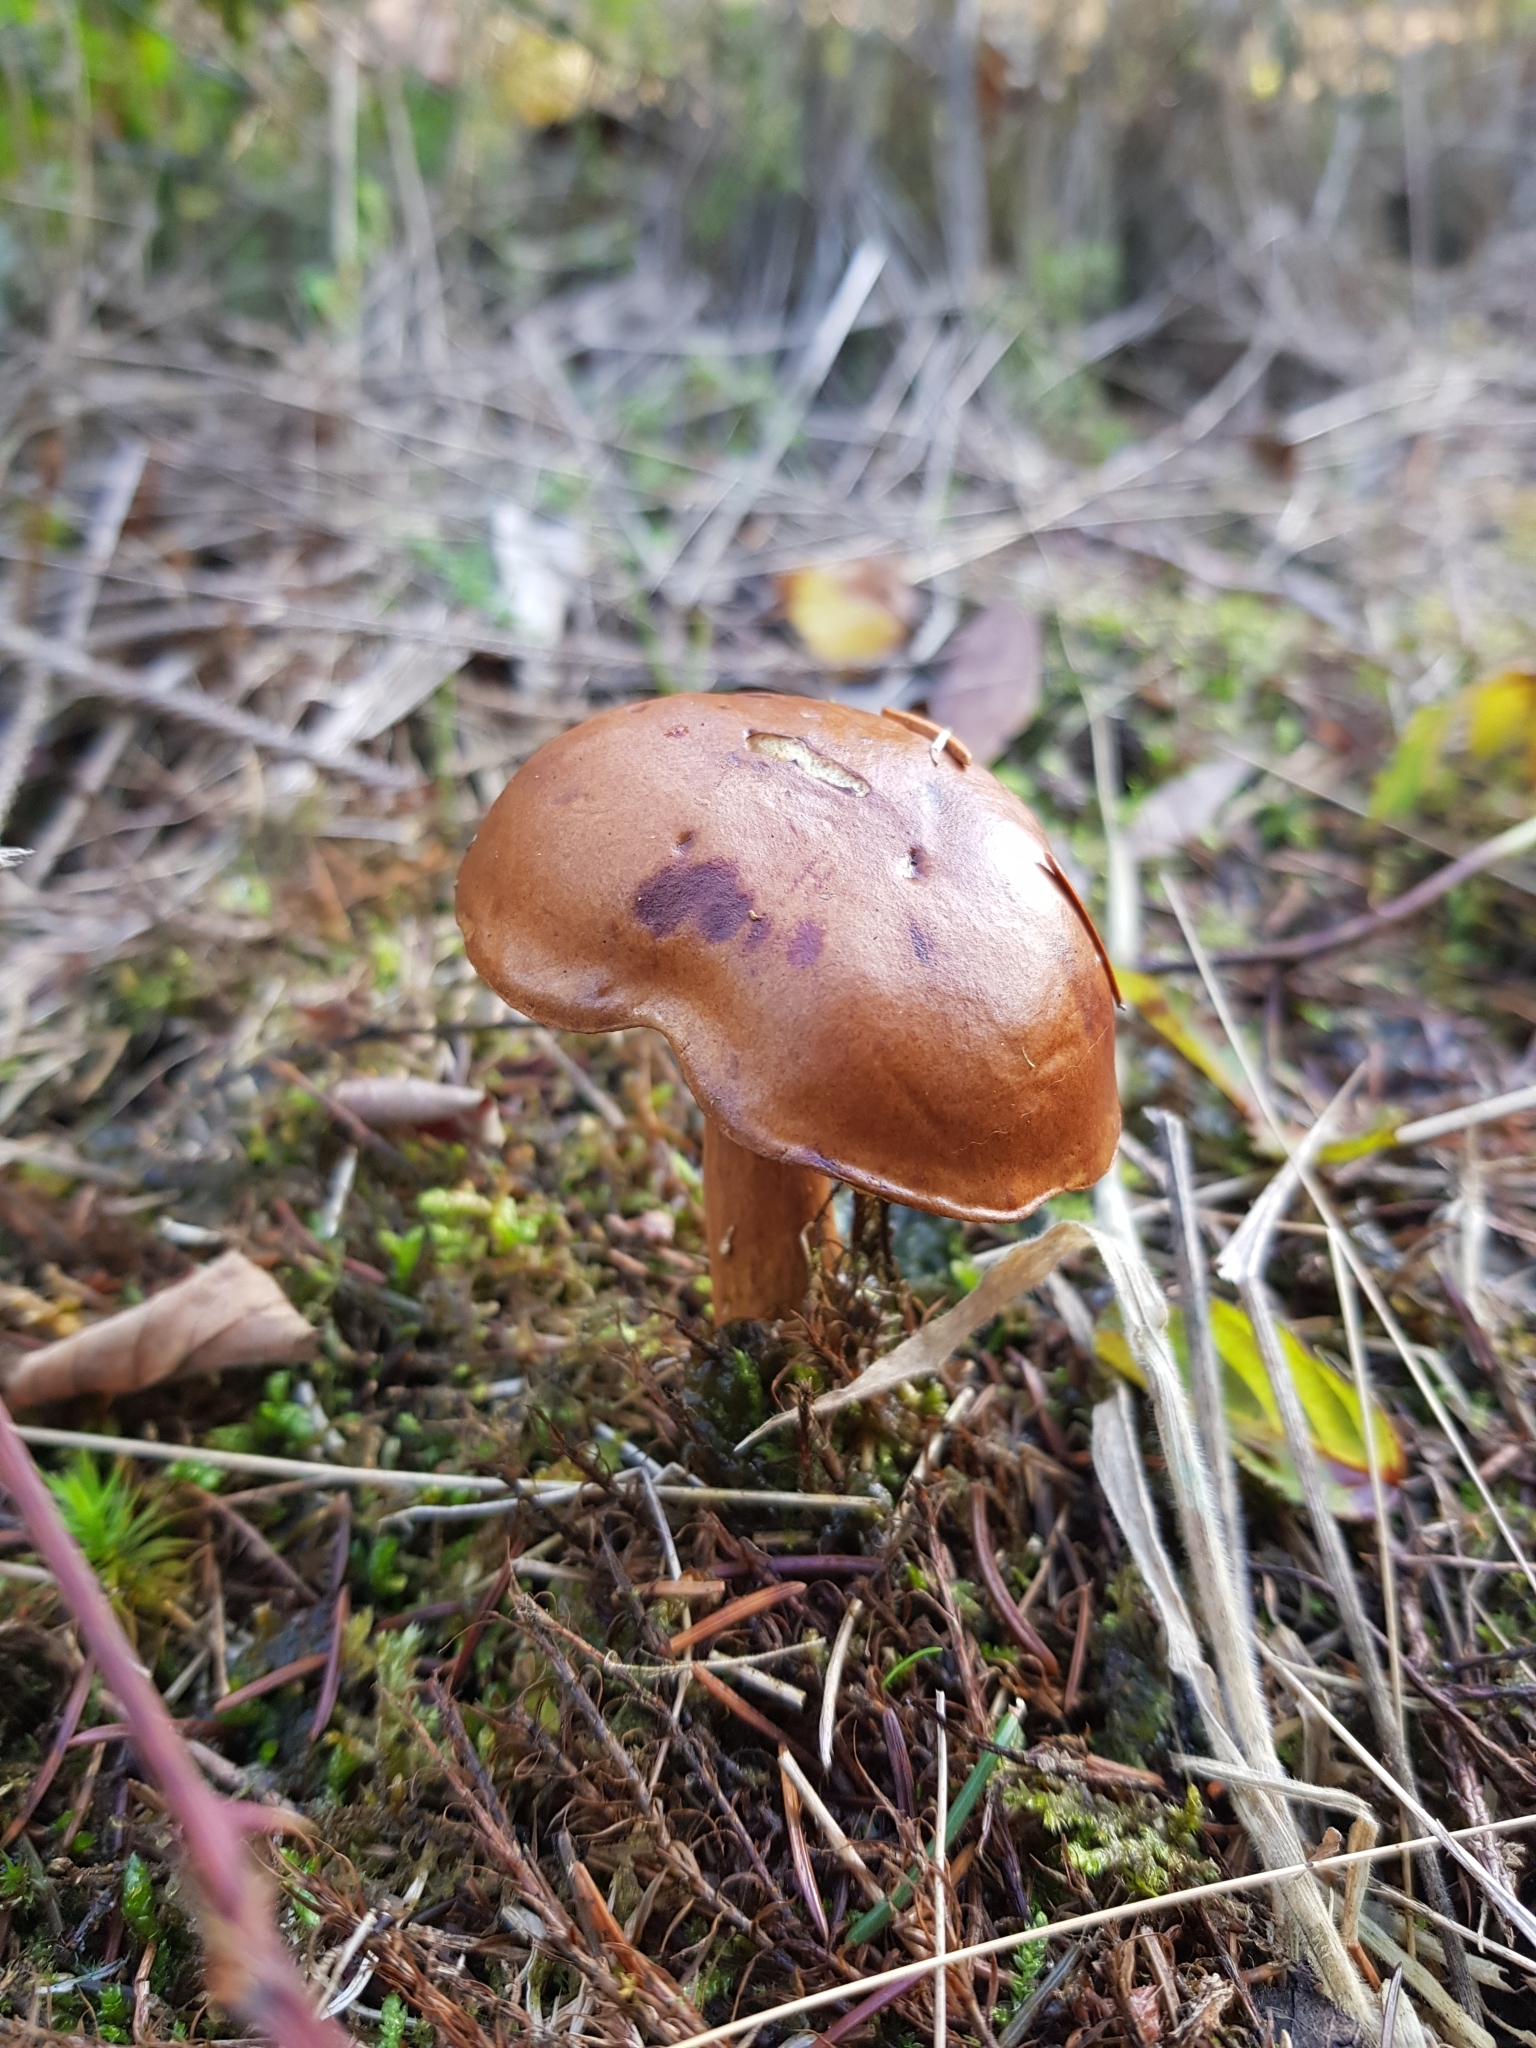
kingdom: Fungi
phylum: Basidiomycota
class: Agaricomycetes
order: Boletales
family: Boletaceae
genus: Imleria
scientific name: Imleria badia
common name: Bay bolete
